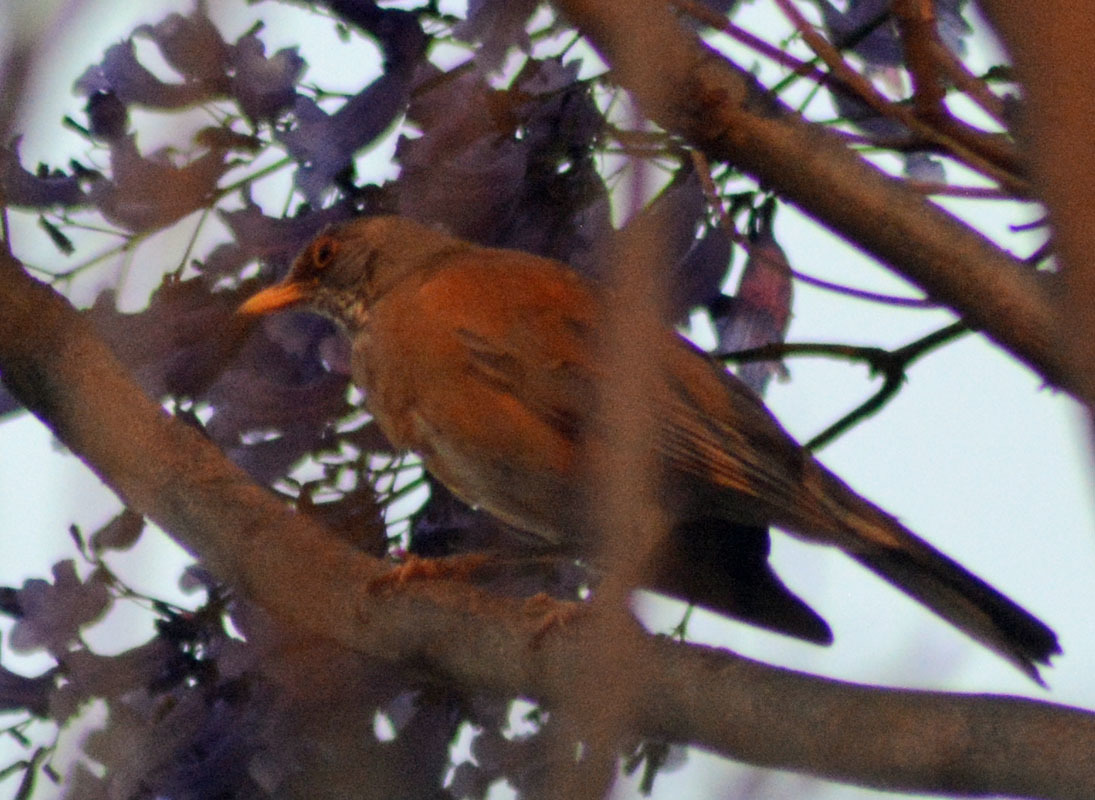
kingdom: Animalia
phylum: Chordata
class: Aves
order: Passeriformes
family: Turdidae
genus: Turdus
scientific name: Turdus rufopalliatus
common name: Rufous-backed robin
